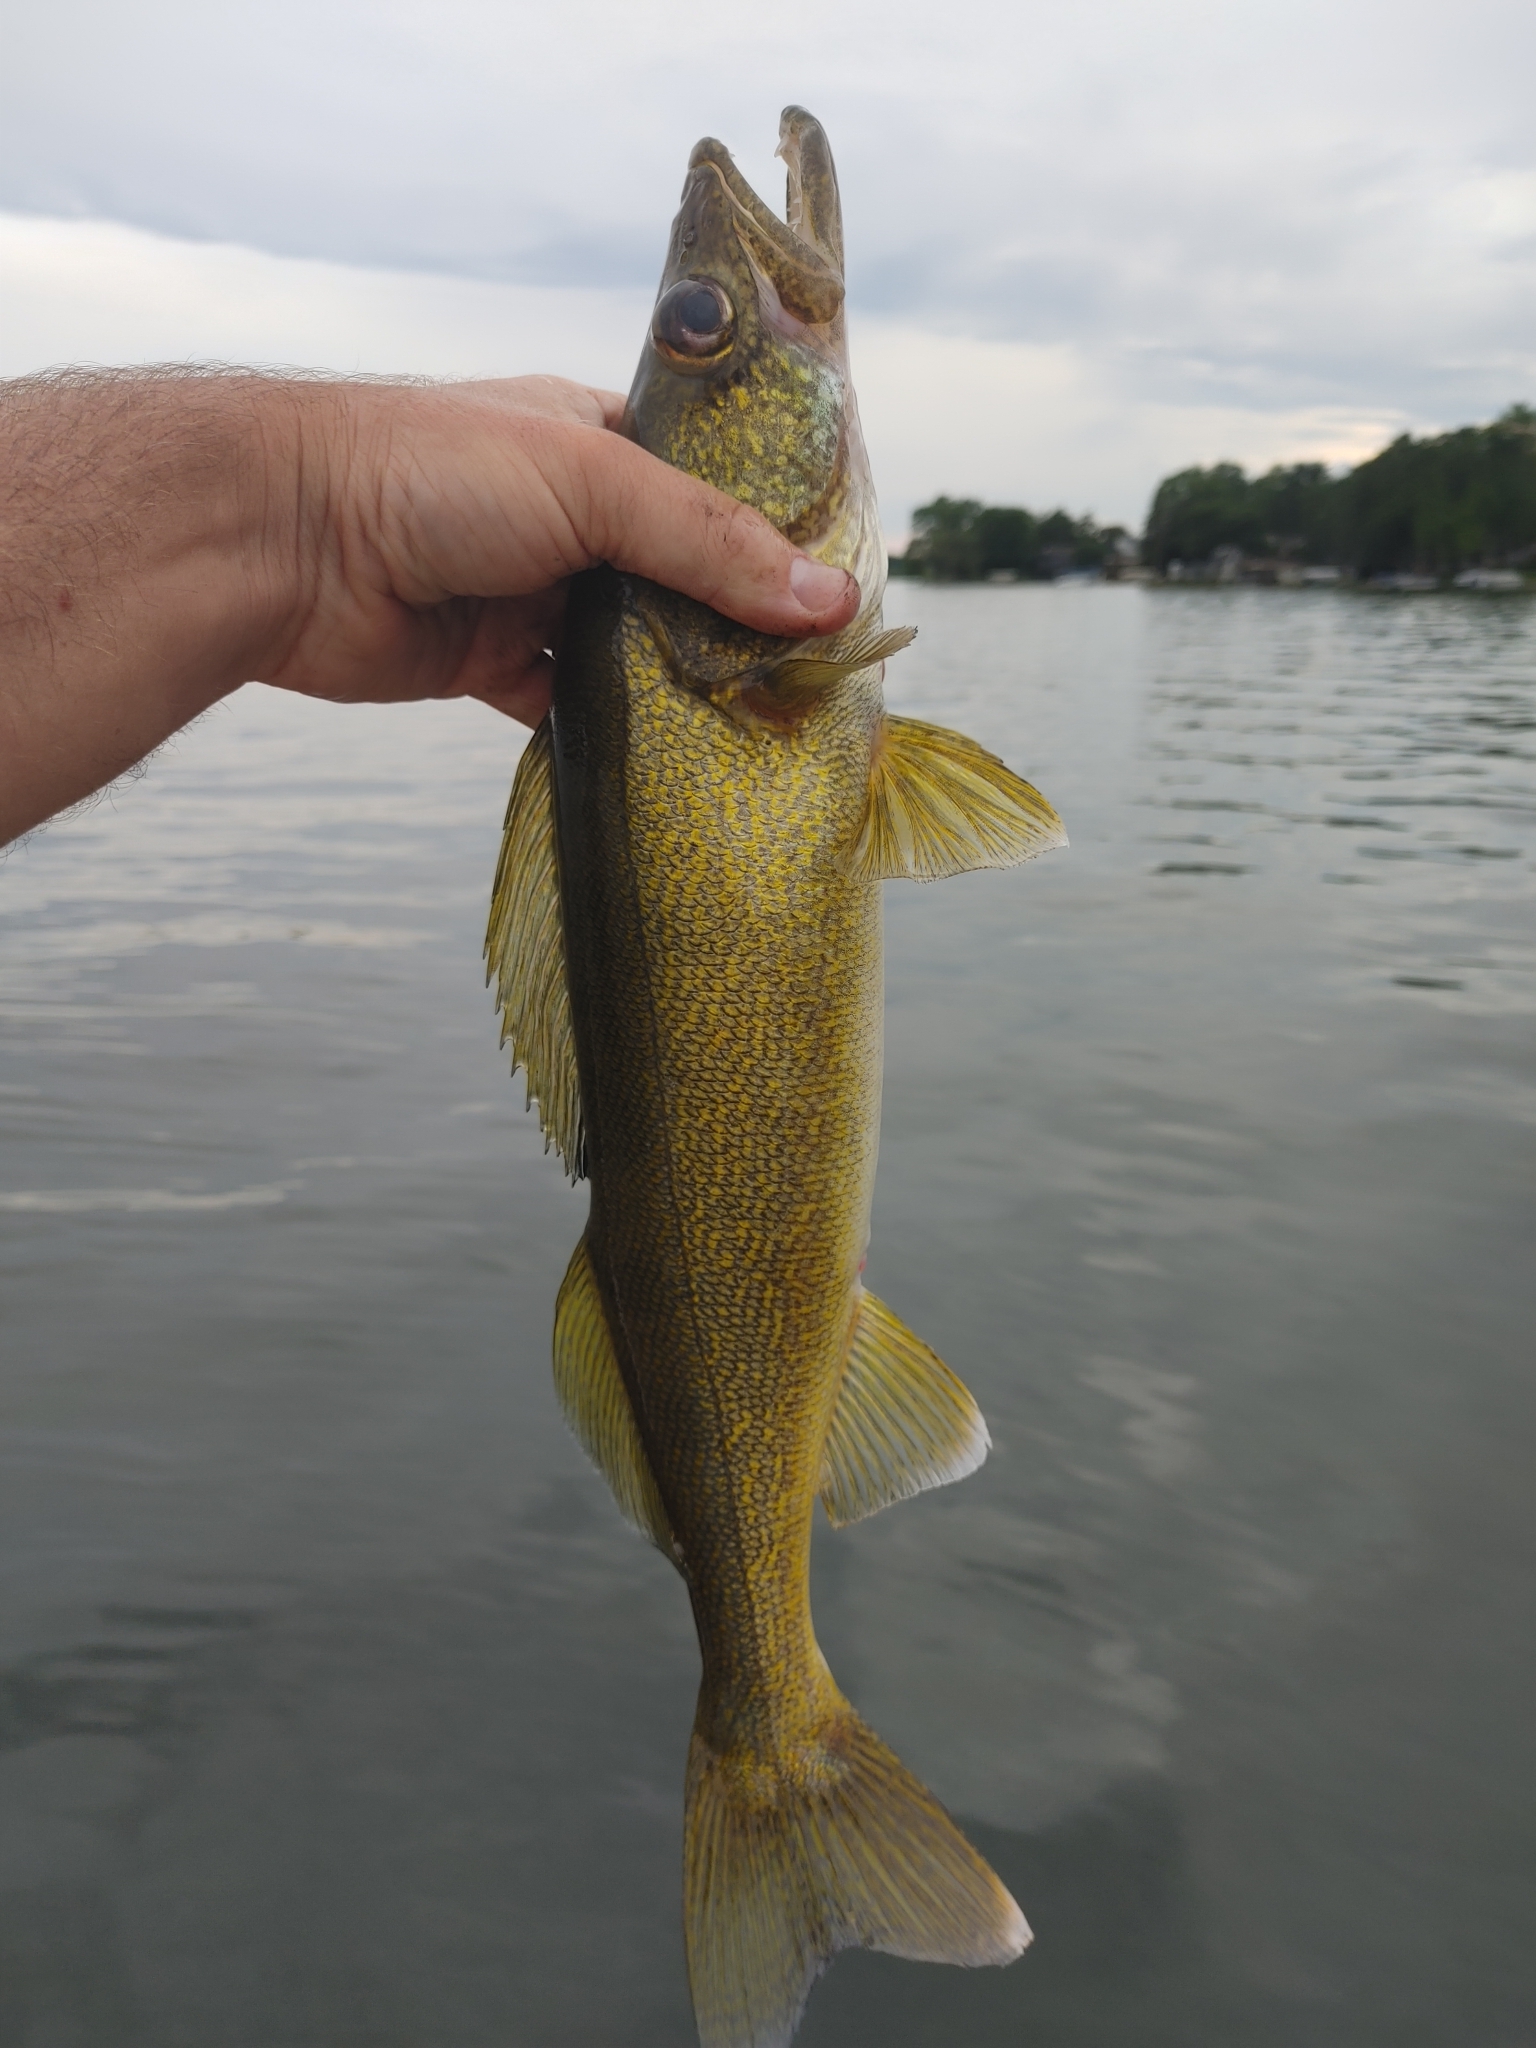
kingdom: Animalia
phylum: Chordata
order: Perciformes
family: Percidae
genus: Sander
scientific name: Sander vitreus
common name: Walleye
